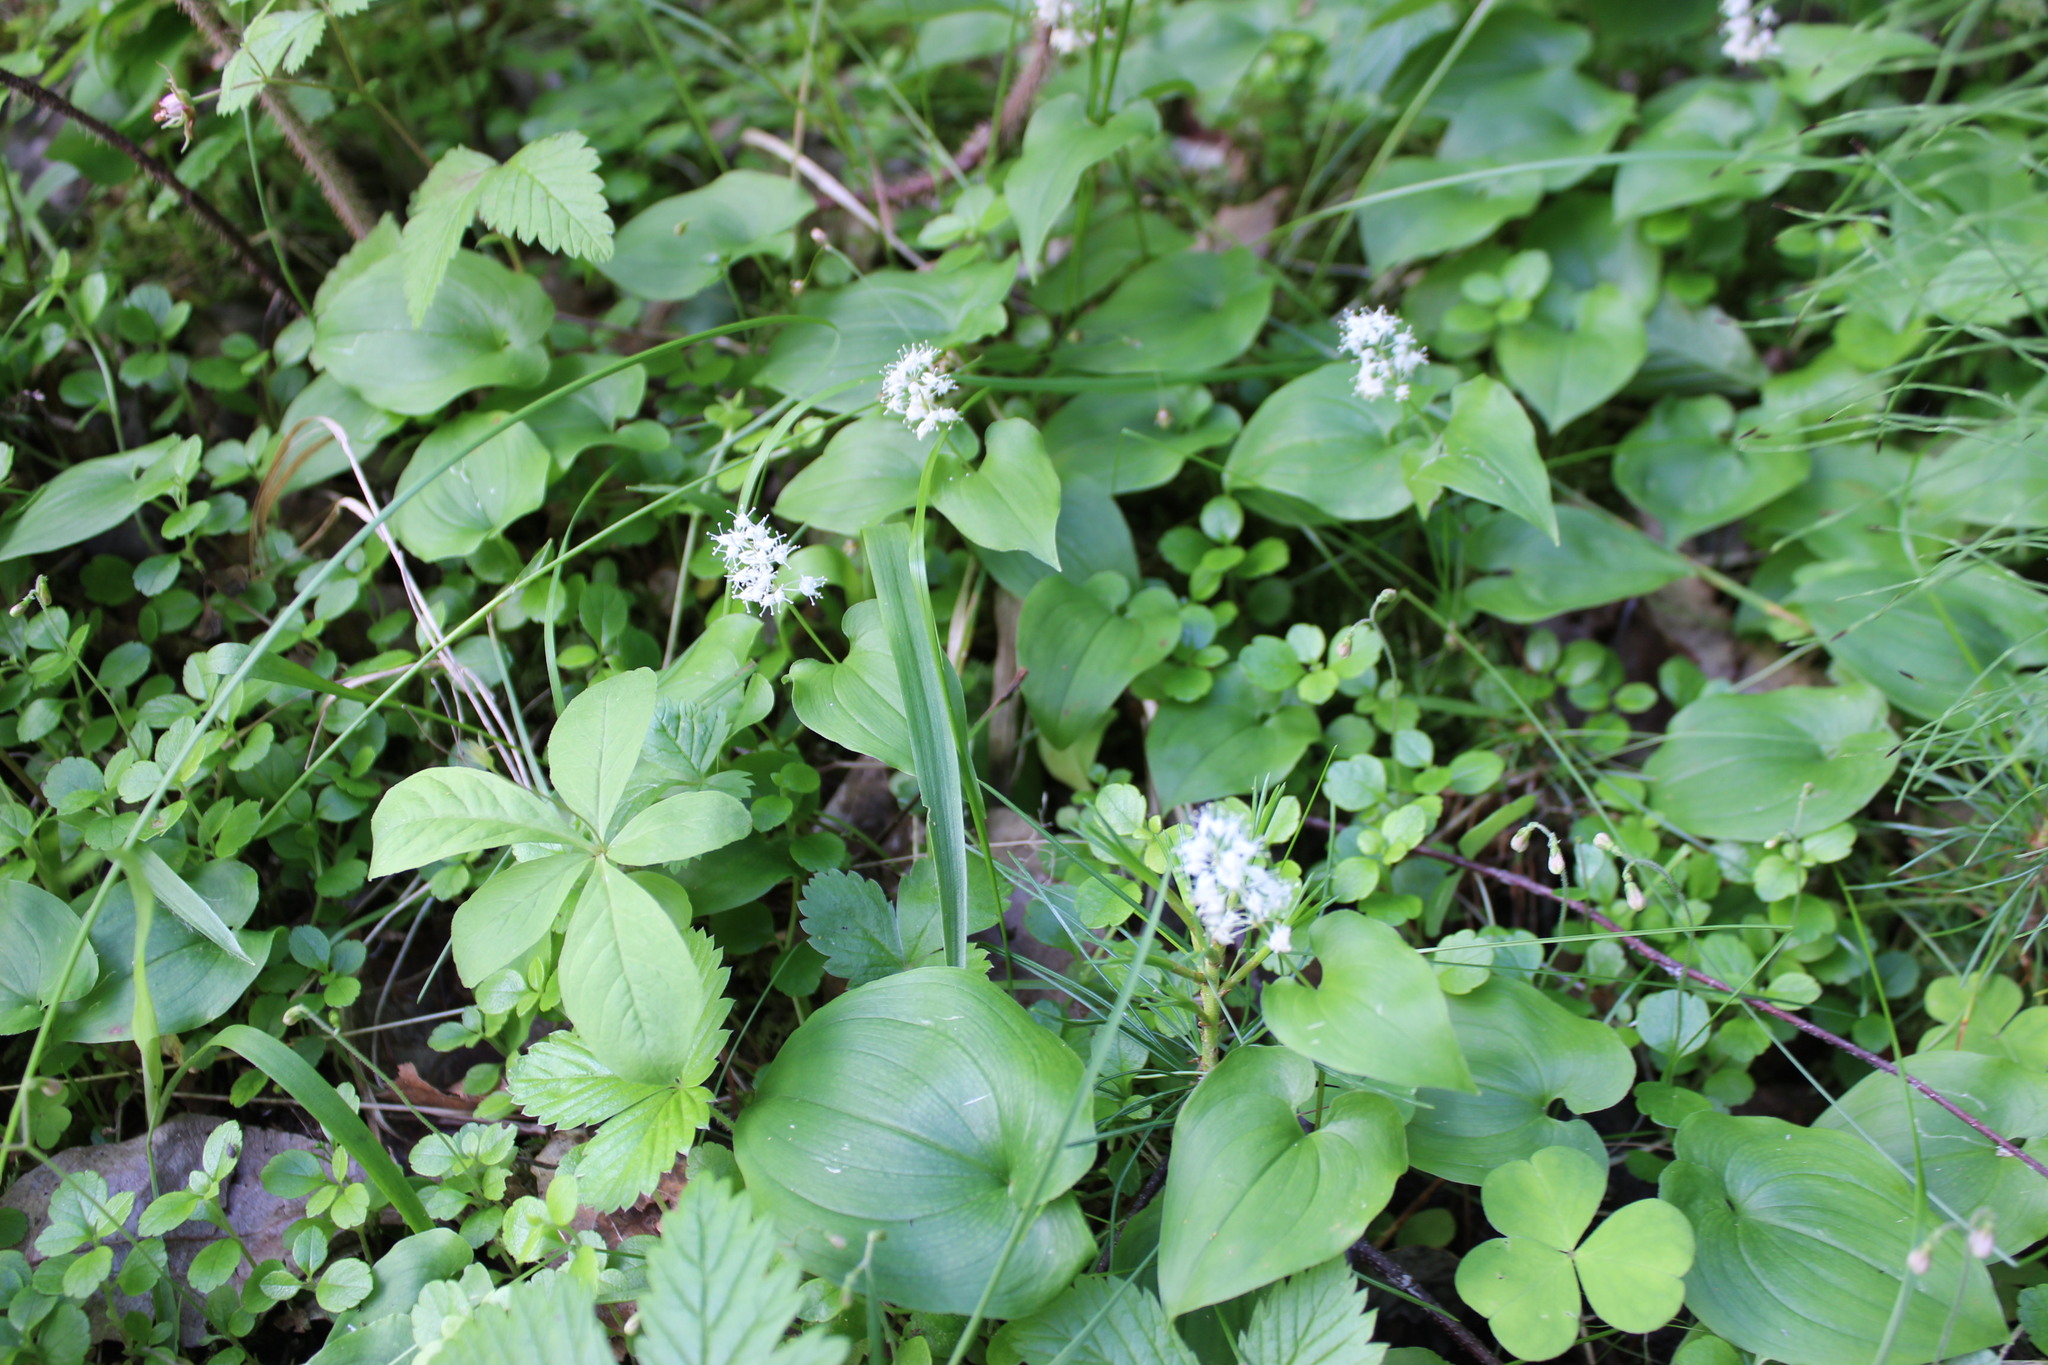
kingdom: Plantae
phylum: Tracheophyta
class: Liliopsida
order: Asparagales
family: Asparagaceae
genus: Maianthemum
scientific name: Maianthemum bifolium
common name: May lily
